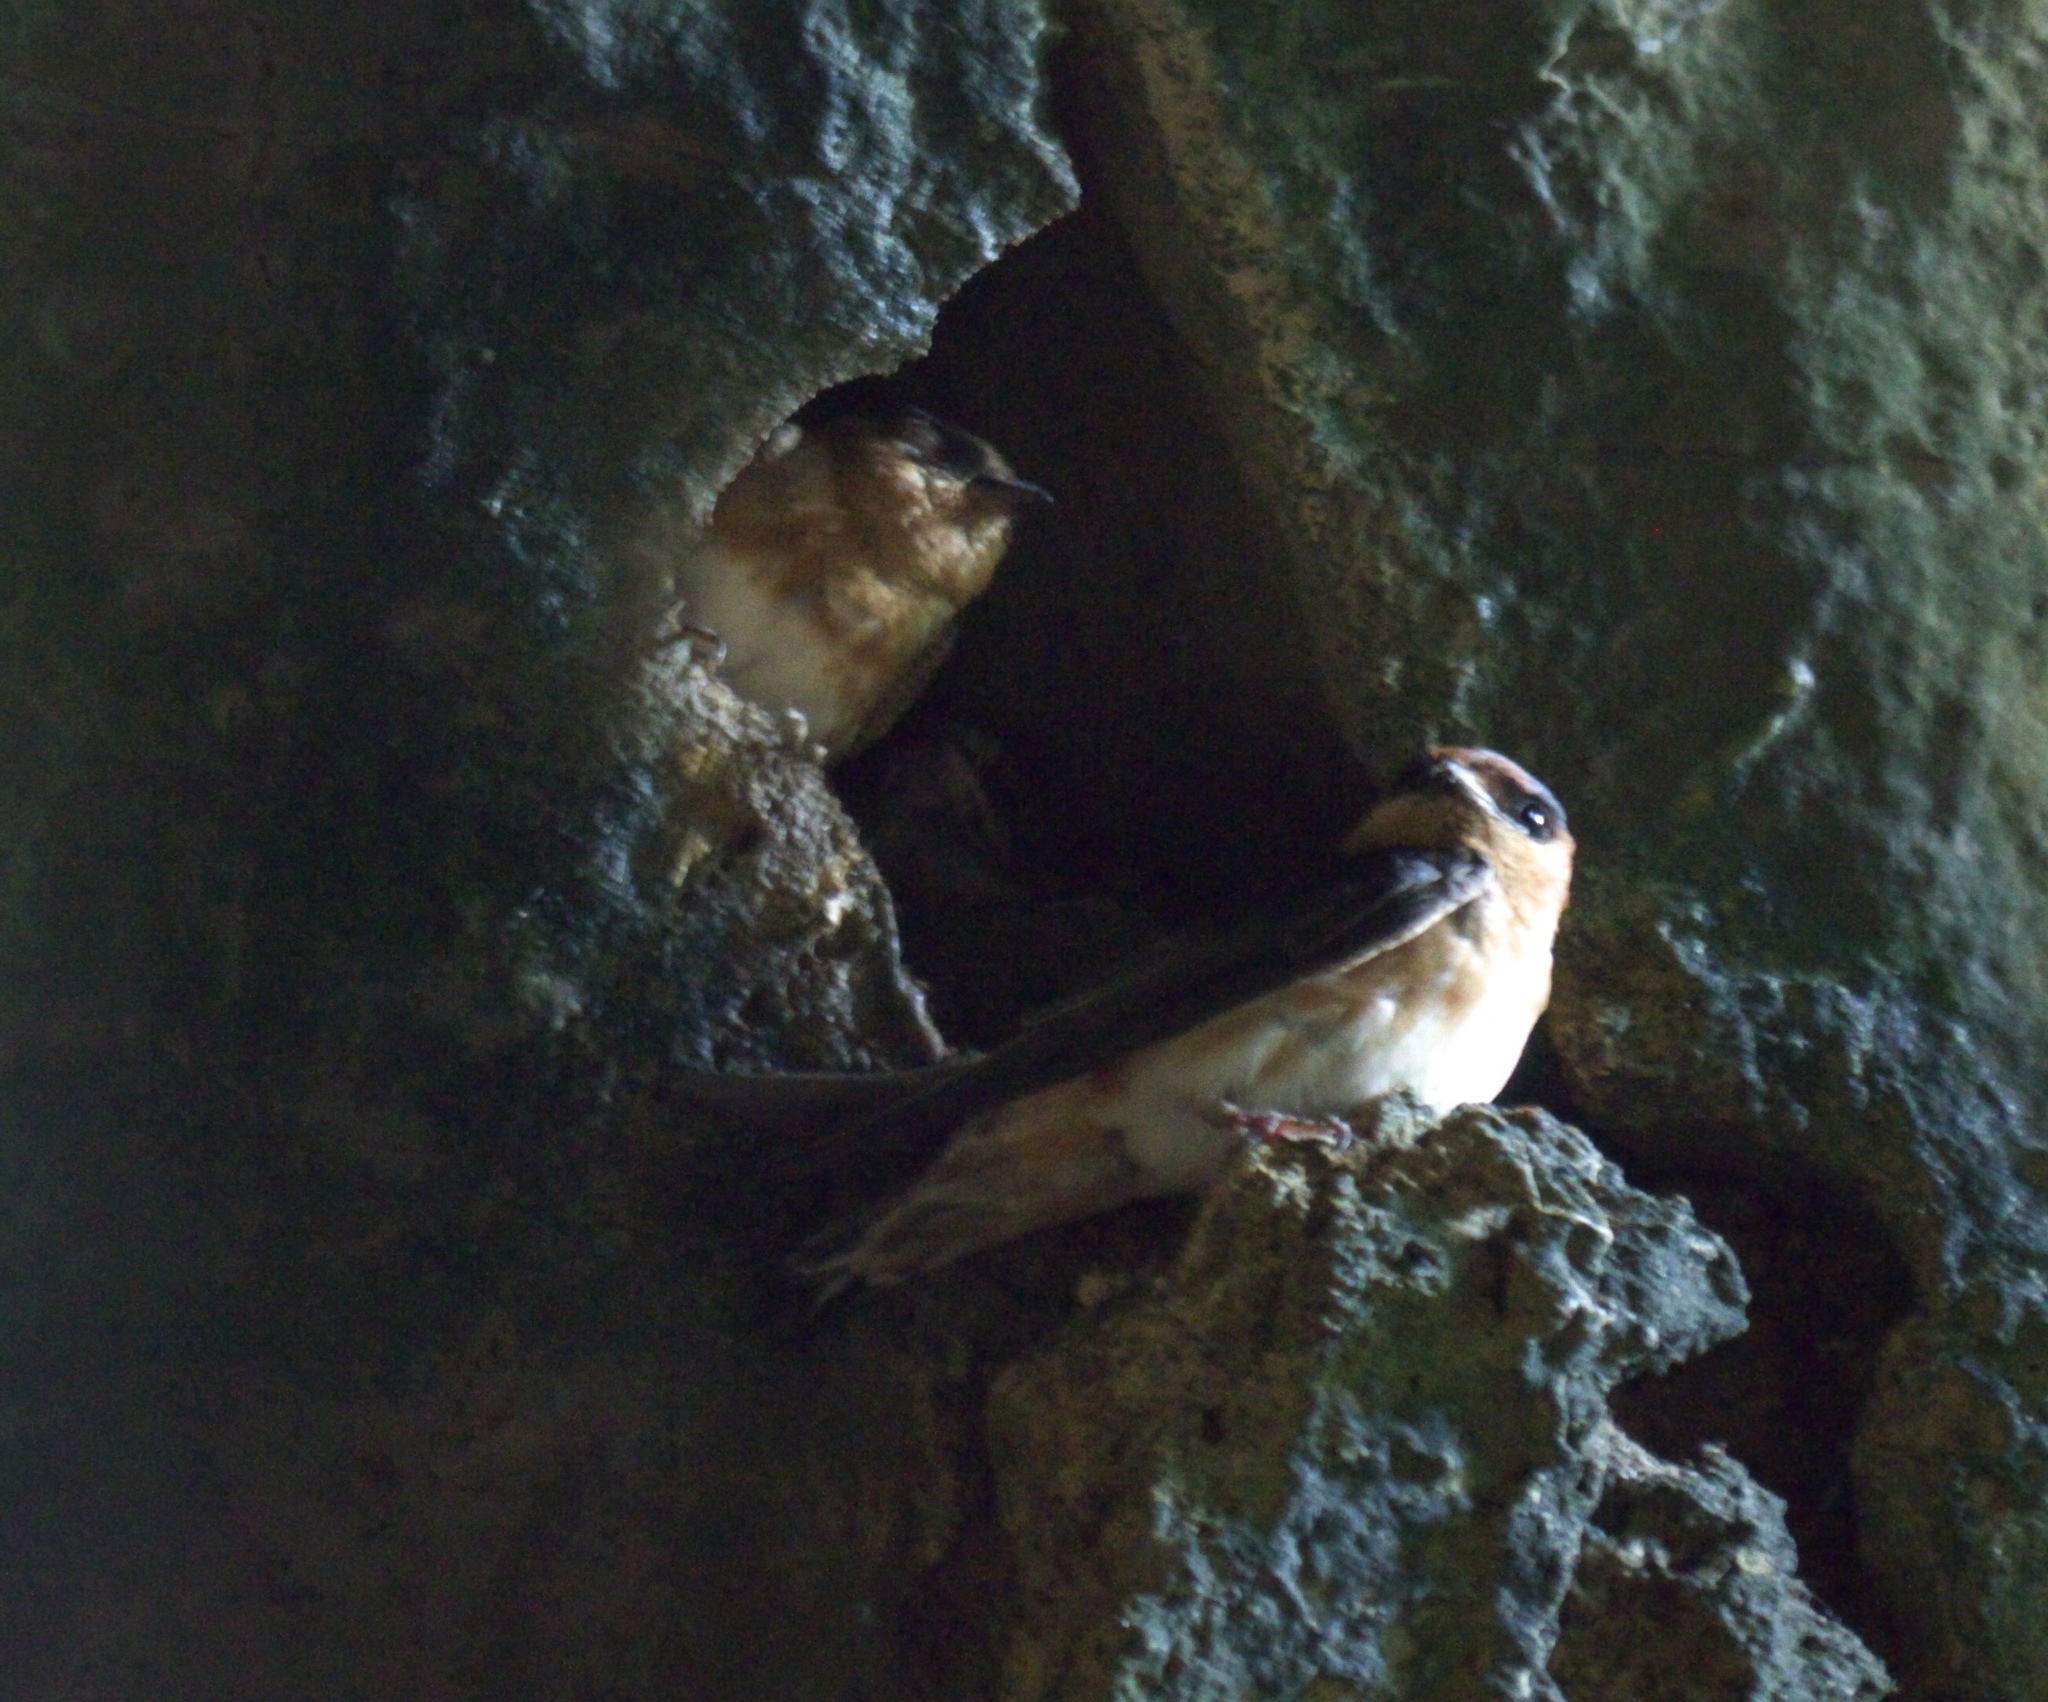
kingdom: Animalia
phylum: Chordata
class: Aves
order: Passeriformes
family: Hirundinidae
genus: Petrochelidon
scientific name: Petrochelidon fulva
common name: Cave swallow
